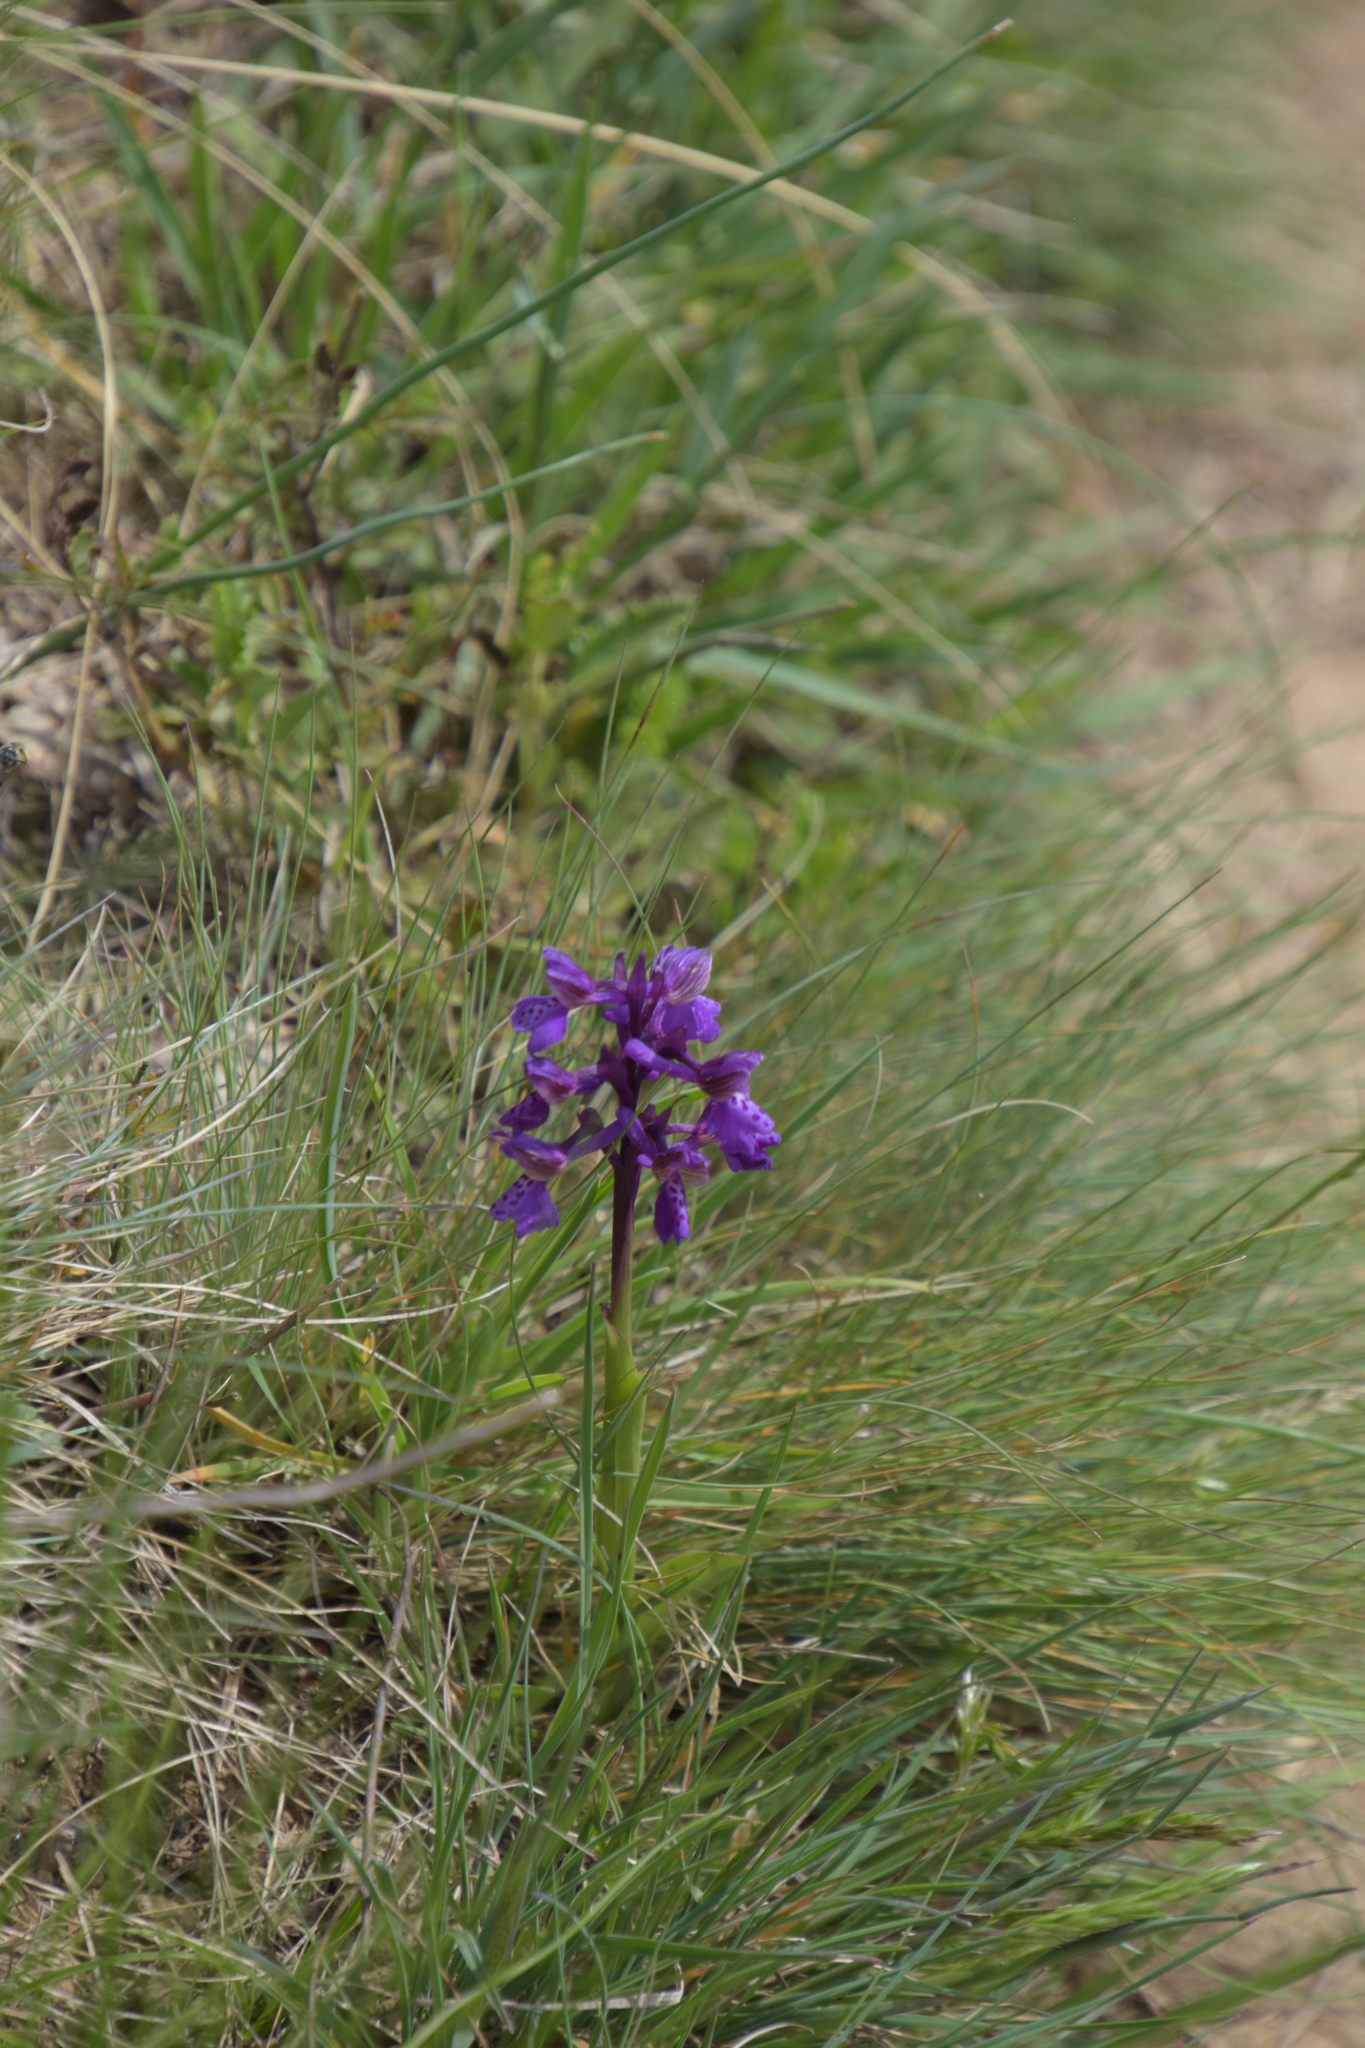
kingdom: Plantae
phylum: Tracheophyta
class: Liliopsida
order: Asparagales
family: Orchidaceae
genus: Anacamptis
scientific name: Anacamptis morio
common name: Green-winged orchid
